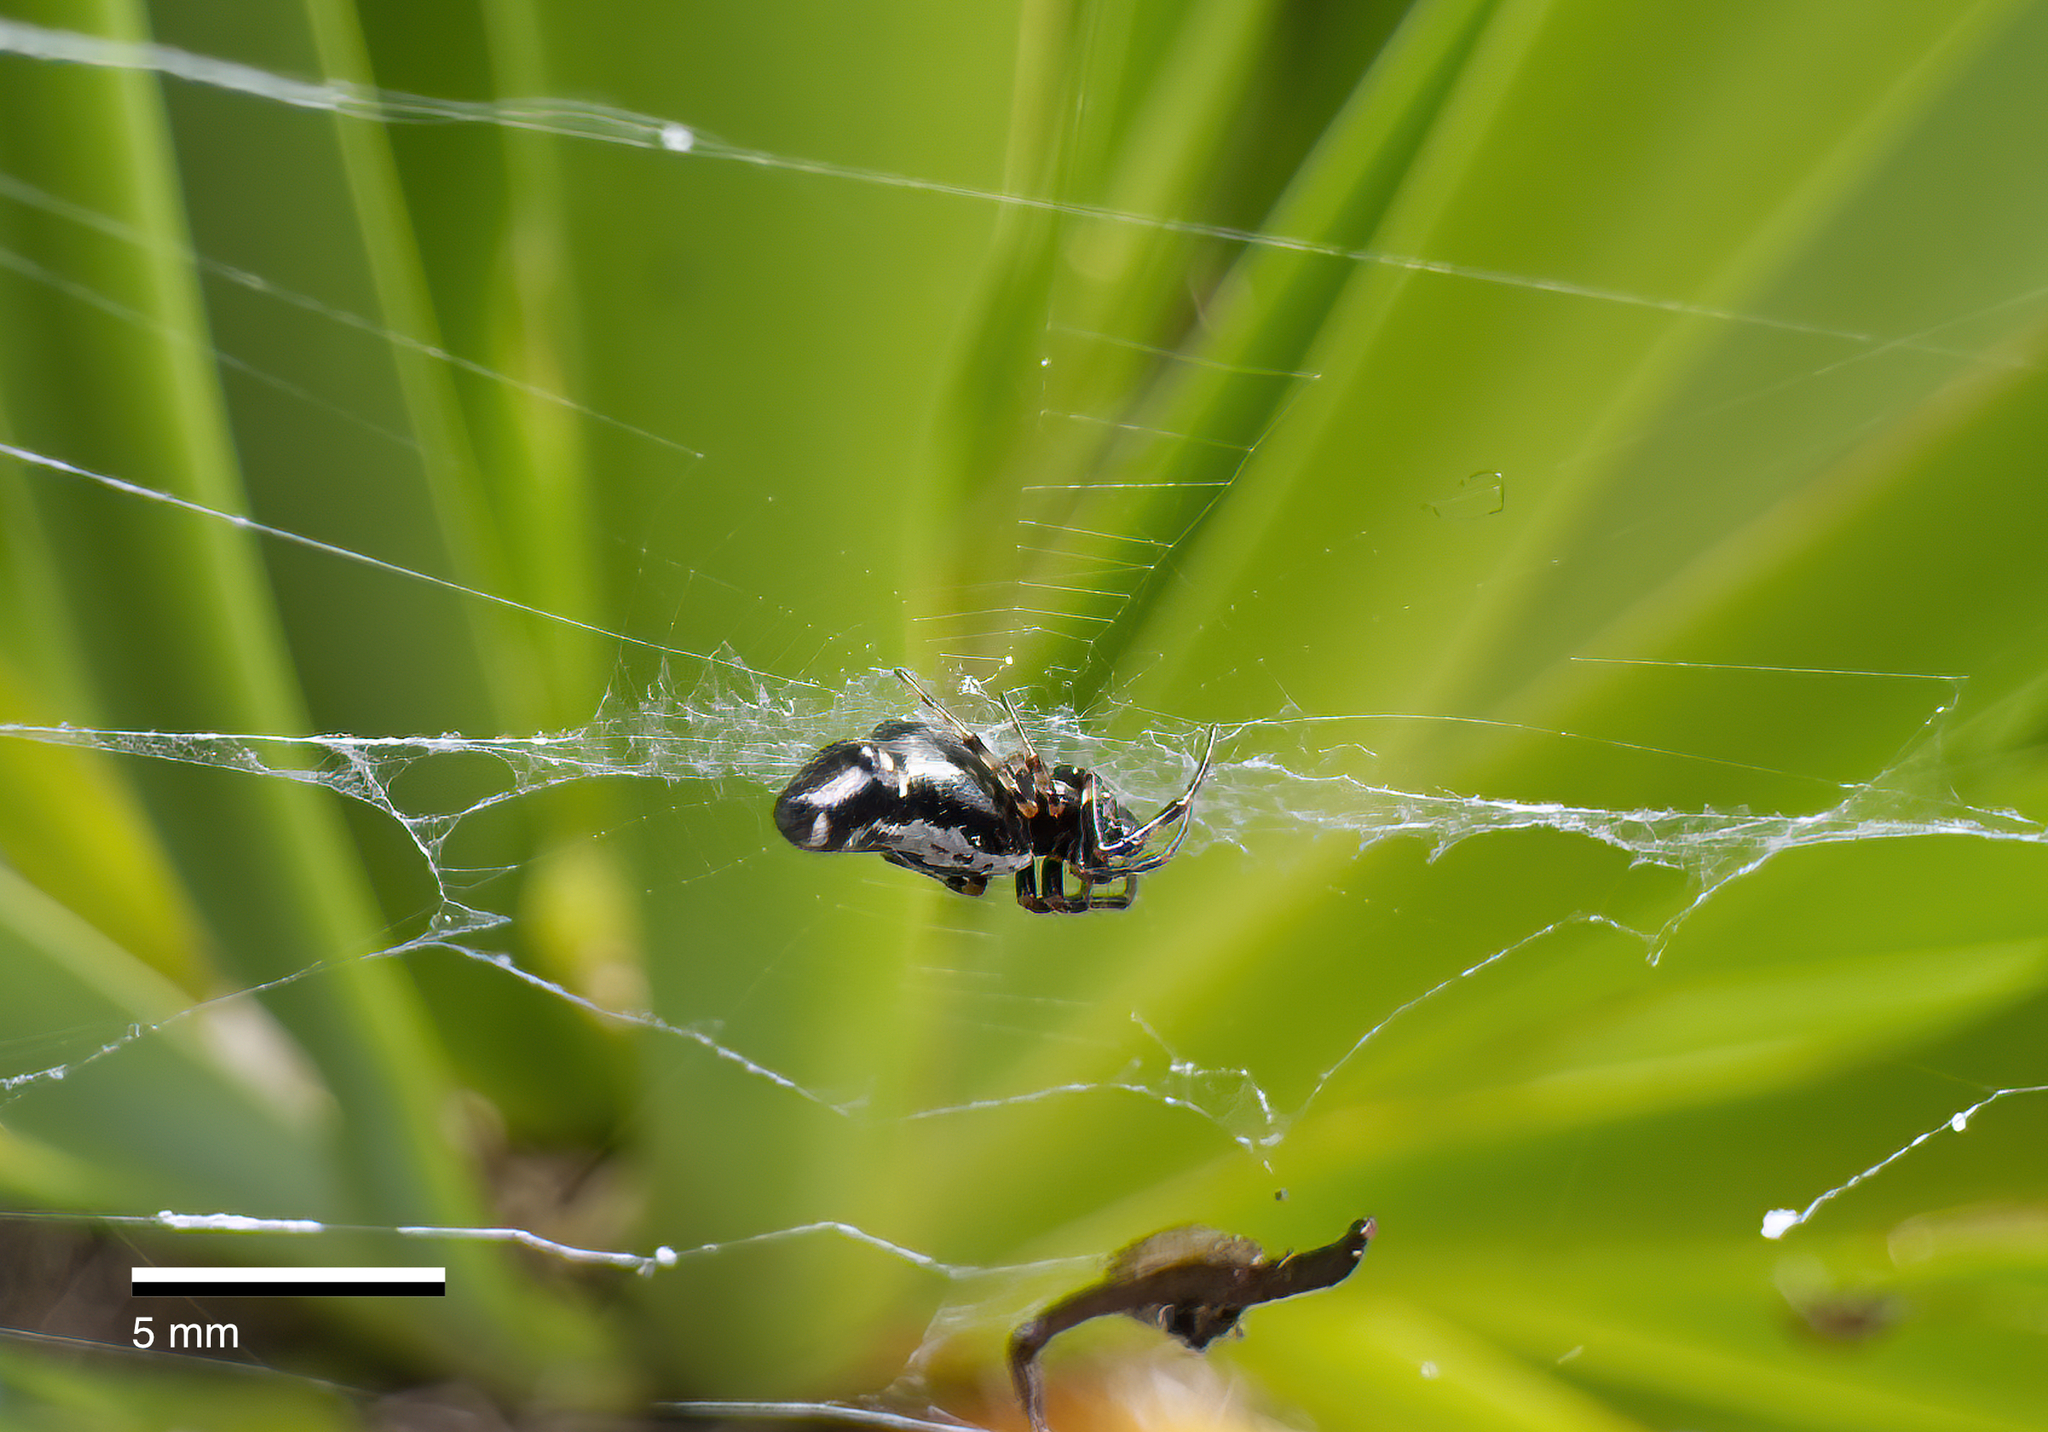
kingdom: Animalia
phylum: Arthropoda
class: Arachnida
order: Araneae
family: Araneidae
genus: Cyclosa
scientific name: Cyclosa trilobata
